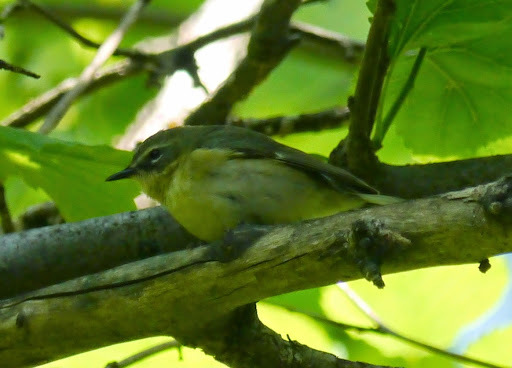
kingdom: Animalia
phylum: Chordata
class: Aves
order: Passeriformes
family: Parulidae
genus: Setophaga
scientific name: Setophaga caerulescens
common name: Black-throated blue warbler
